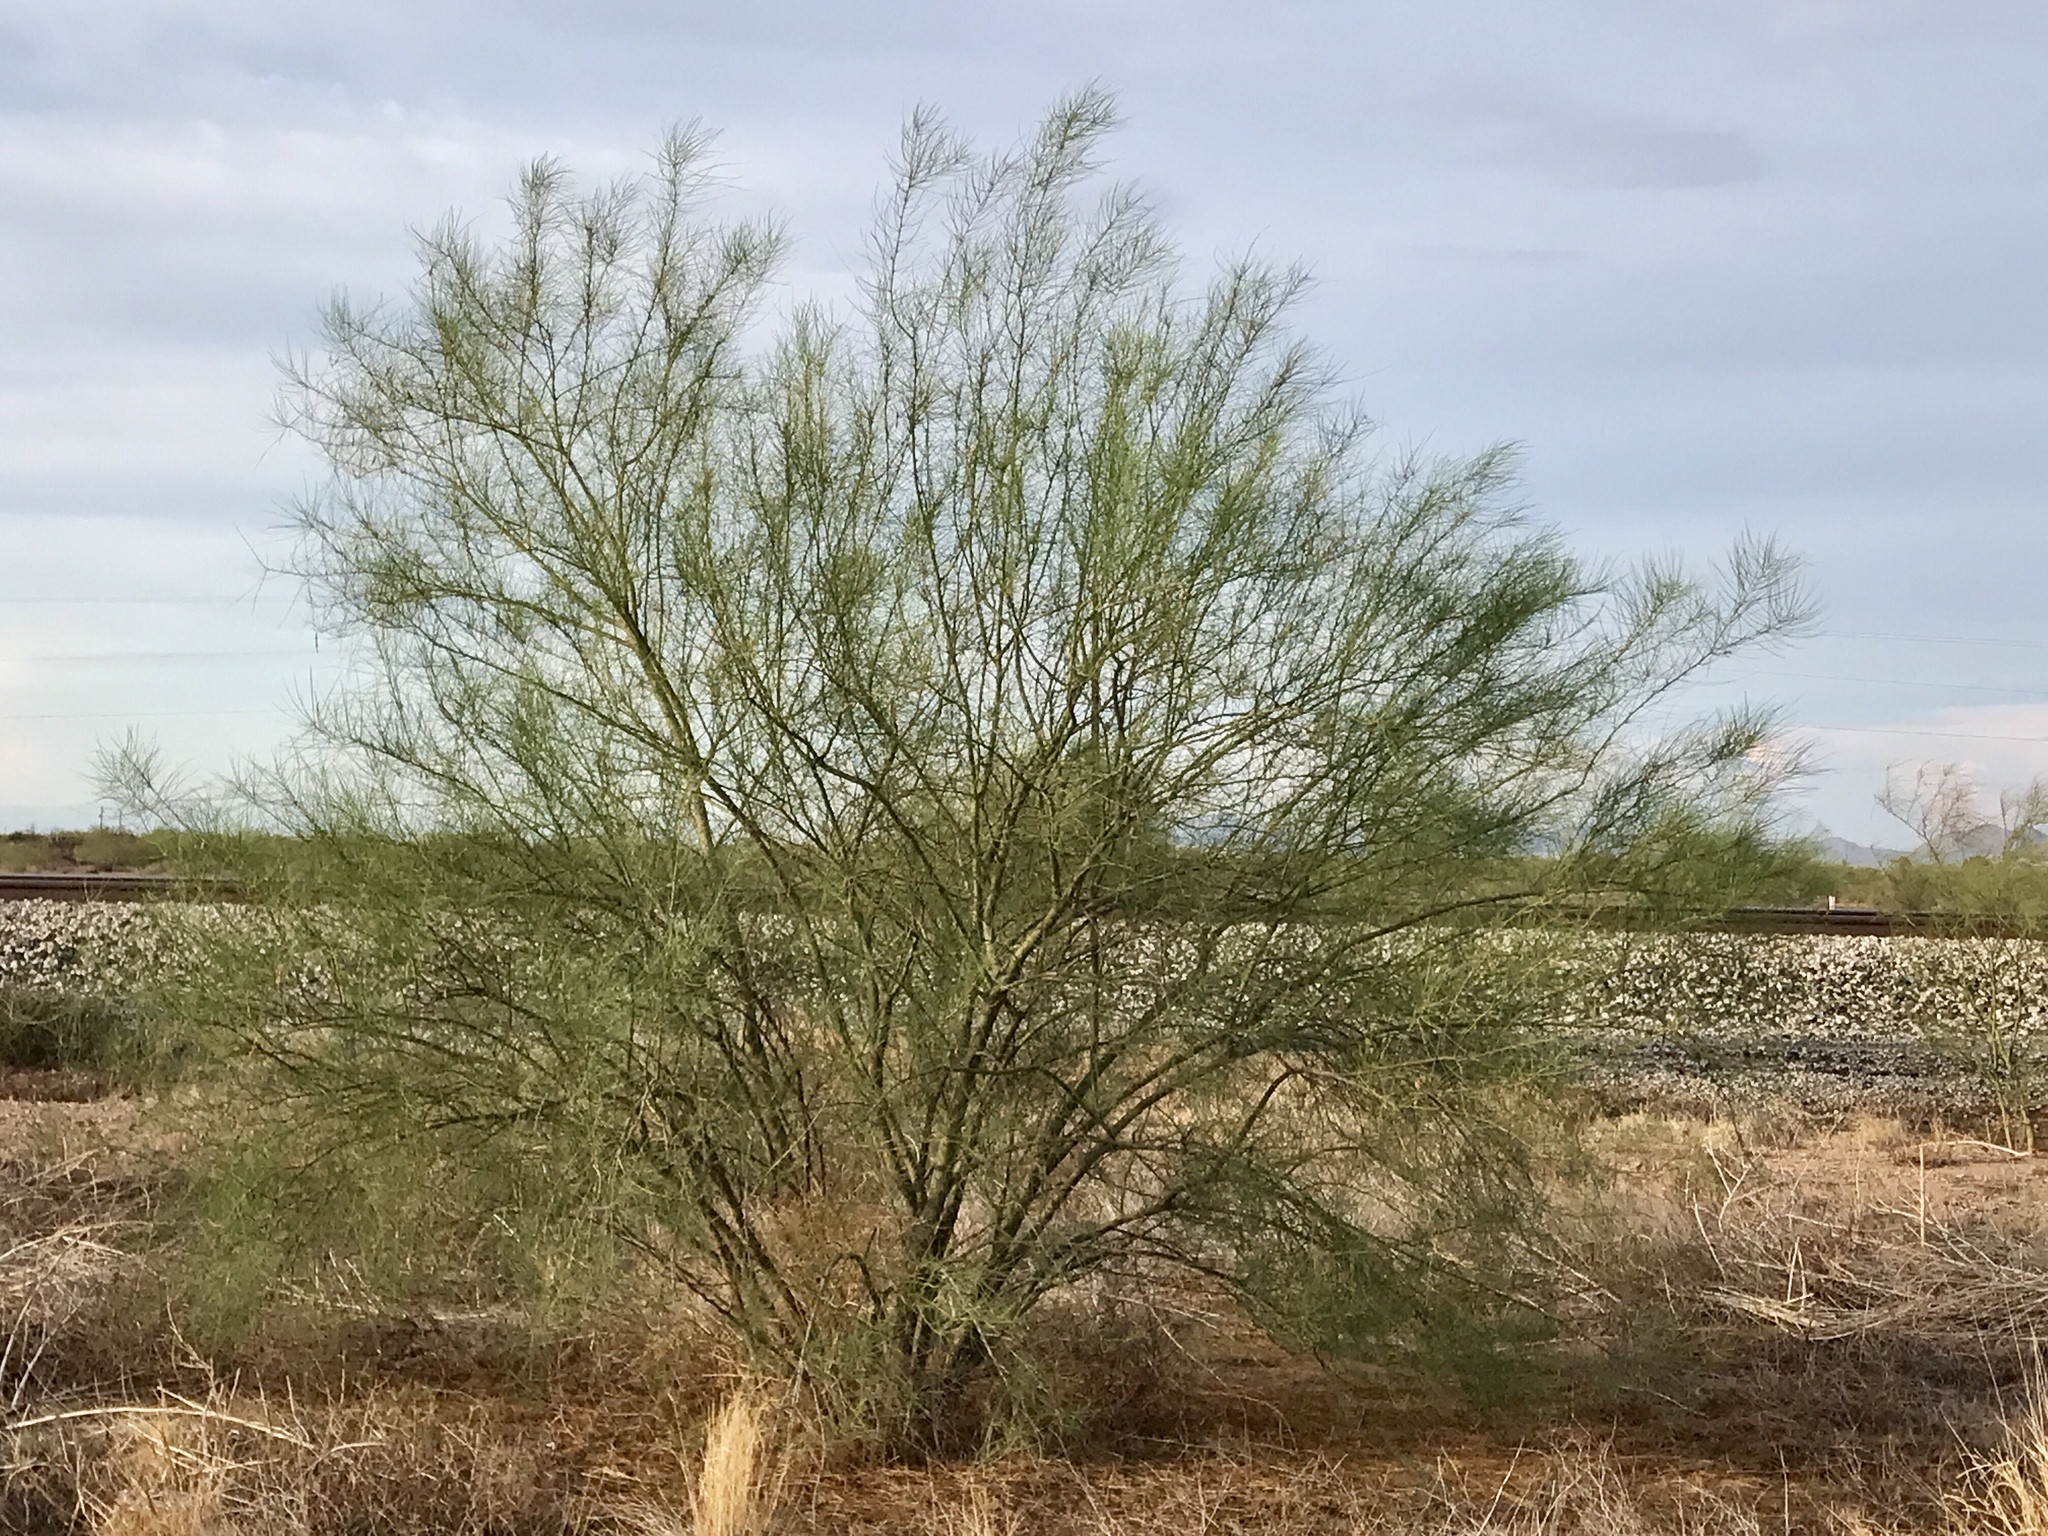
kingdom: Plantae
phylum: Tracheophyta
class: Magnoliopsida
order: Fabales
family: Fabaceae
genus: Parkinsonia
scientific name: Parkinsonia aculeata
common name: Jerusalem thorn
